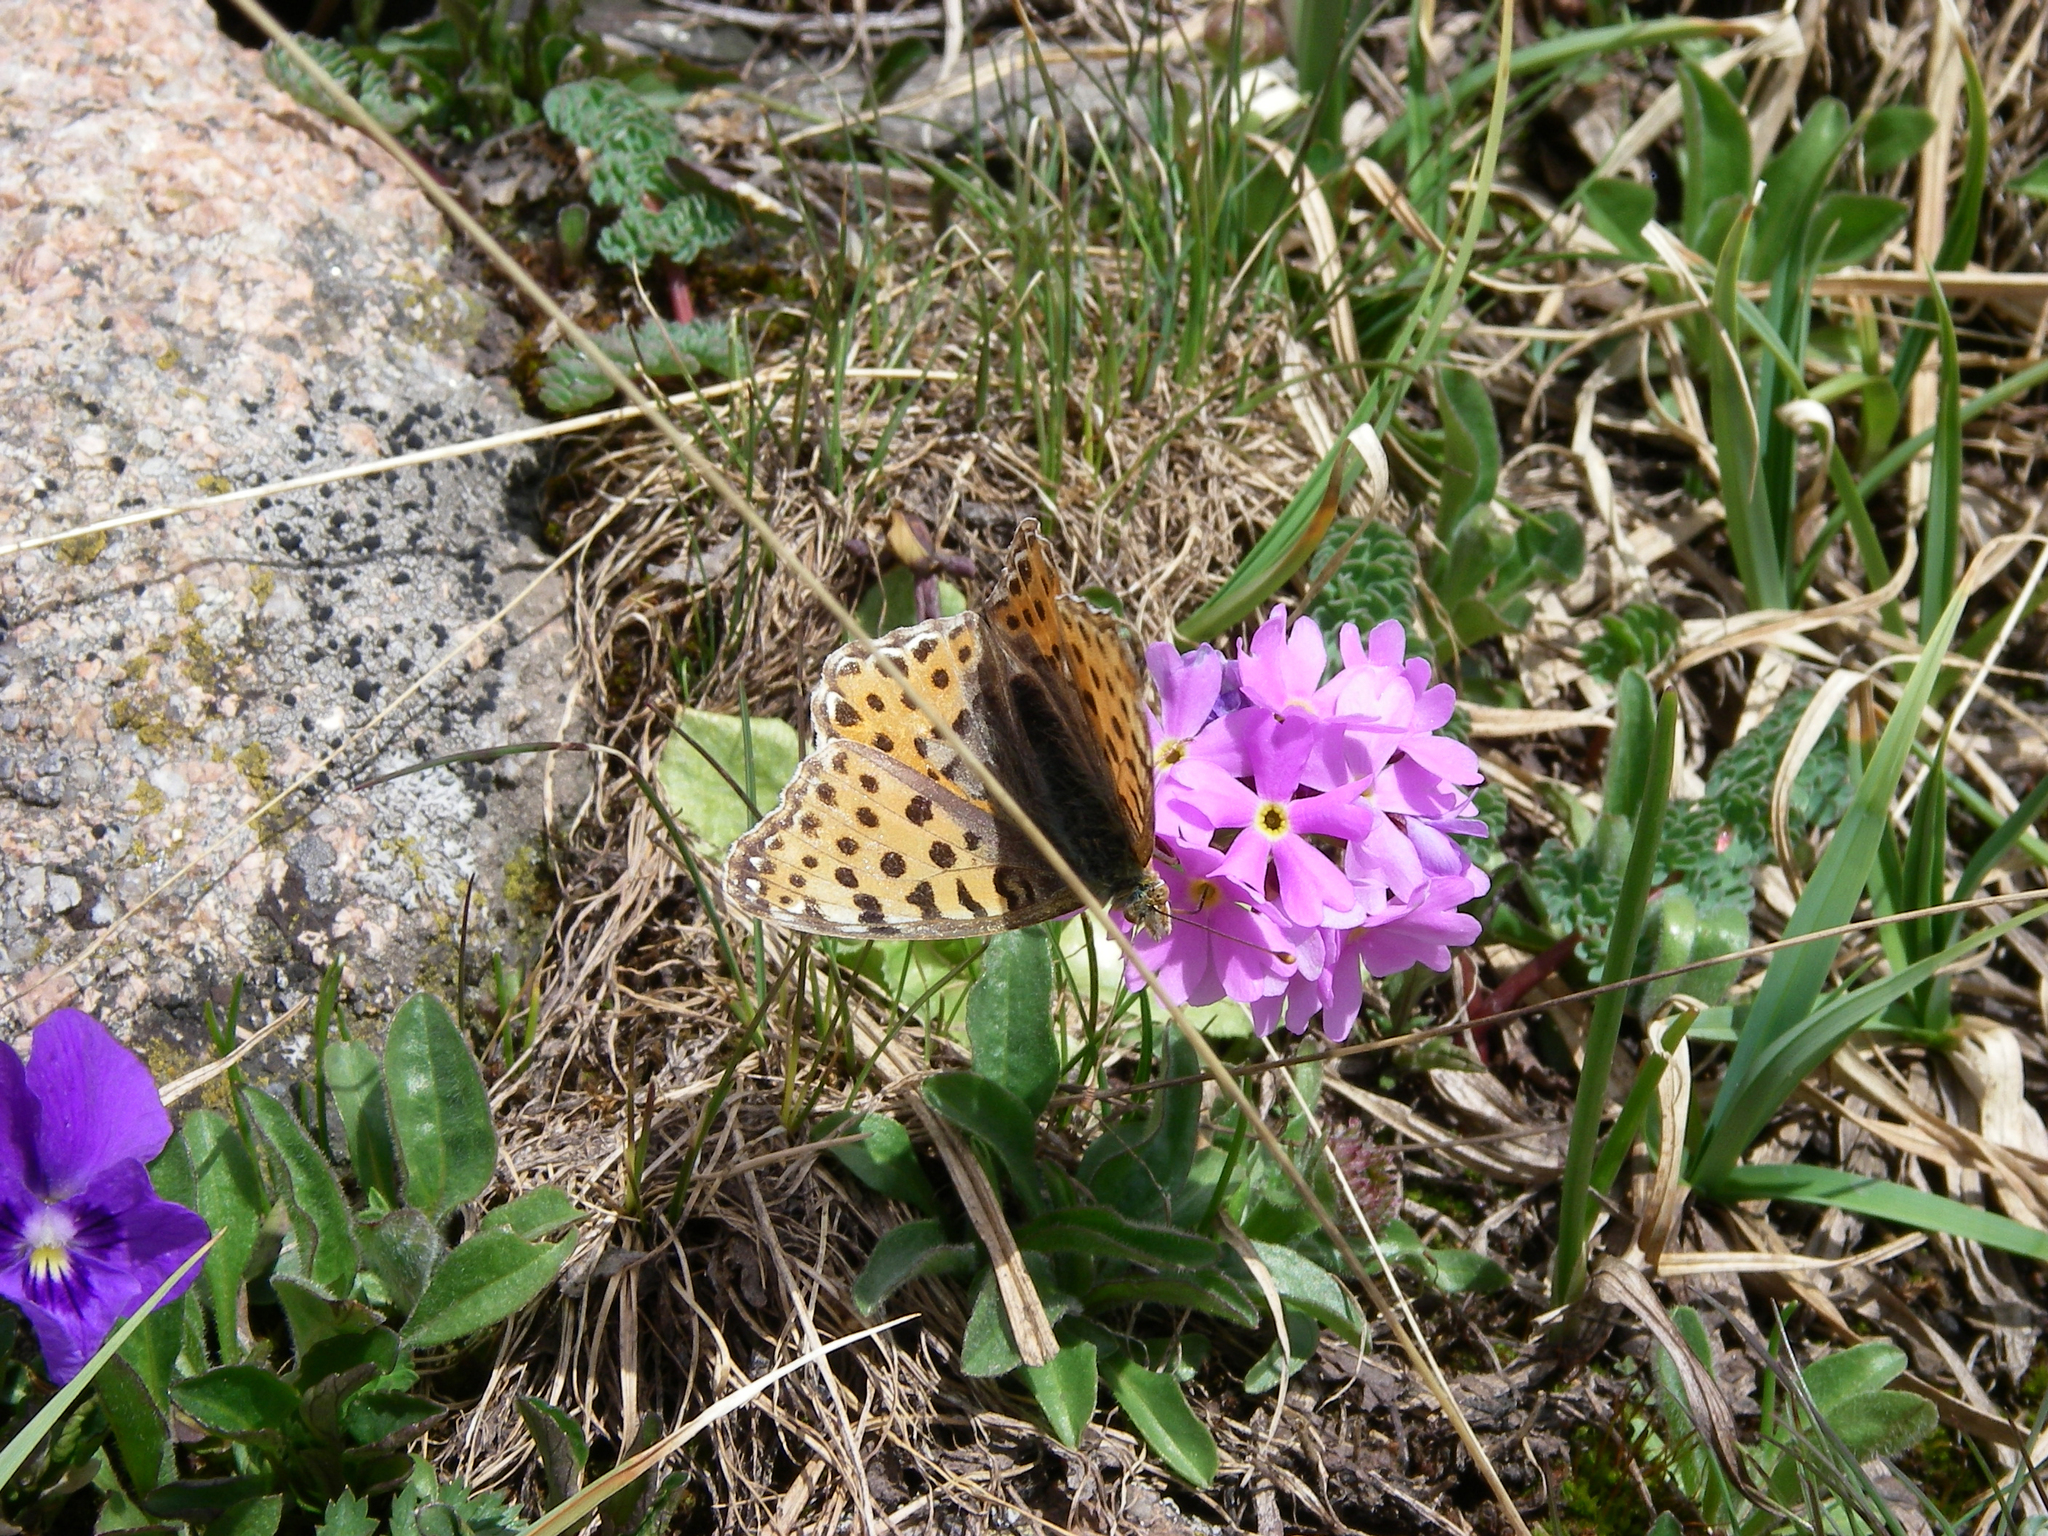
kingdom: Animalia
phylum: Arthropoda
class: Insecta
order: Lepidoptera
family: Nymphalidae
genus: Issoria
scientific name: Issoria lathonia
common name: Queen of spain fritillary
